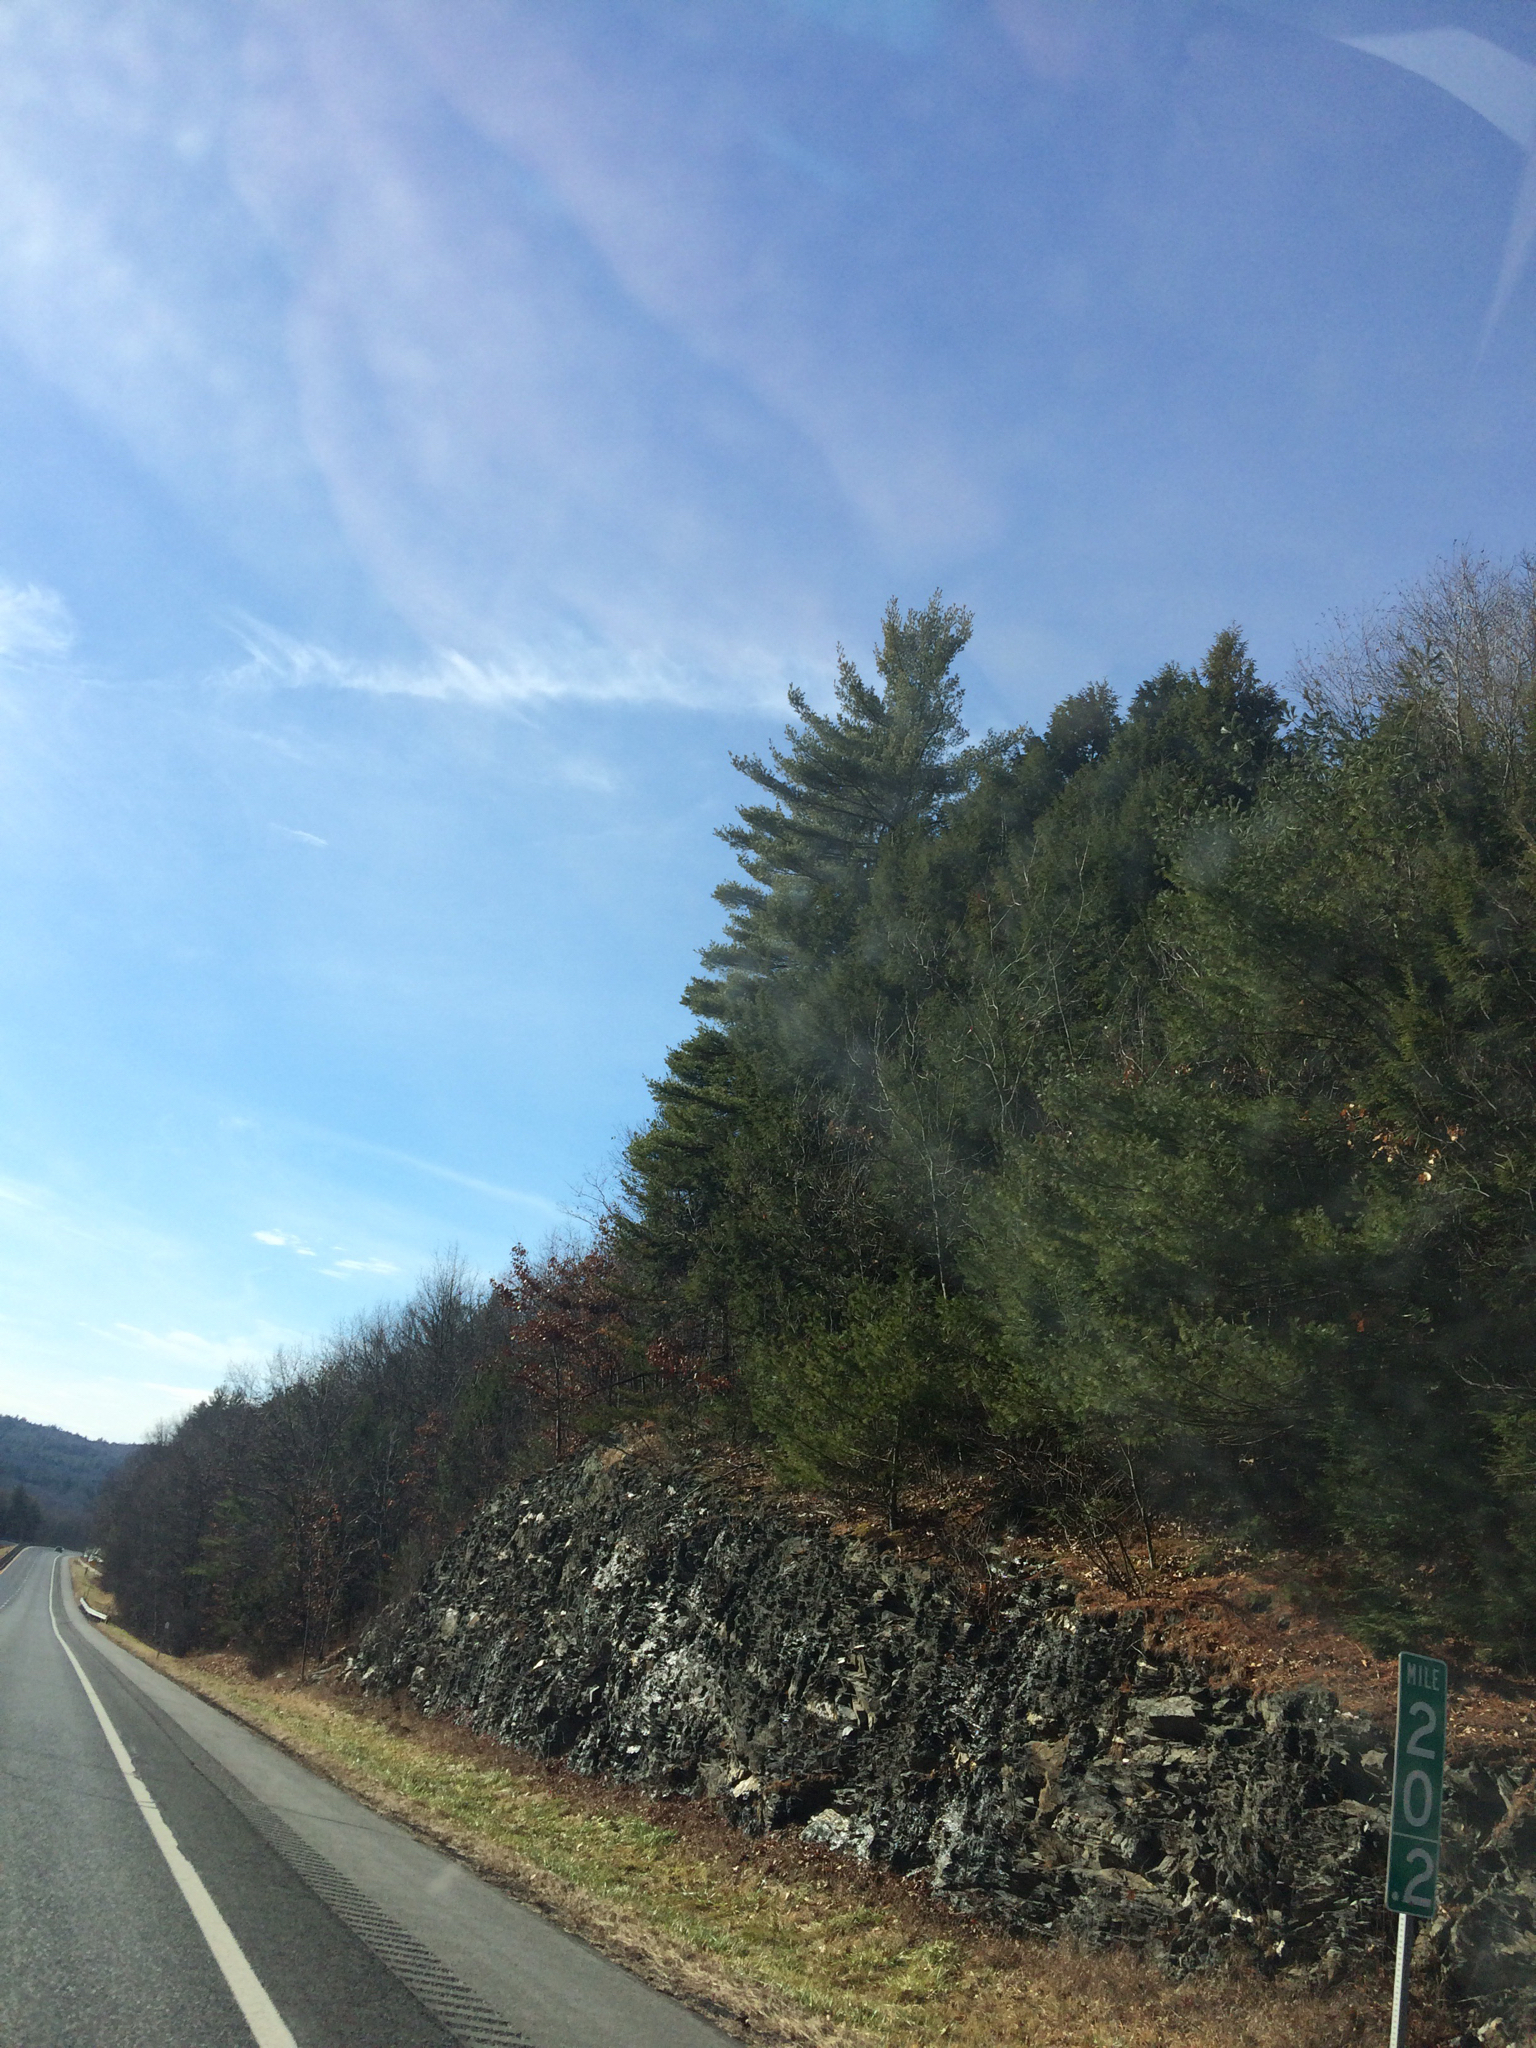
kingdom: Plantae
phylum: Tracheophyta
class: Pinopsida
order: Pinales
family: Pinaceae
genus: Pinus
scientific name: Pinus strobus
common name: Weymouth pine
